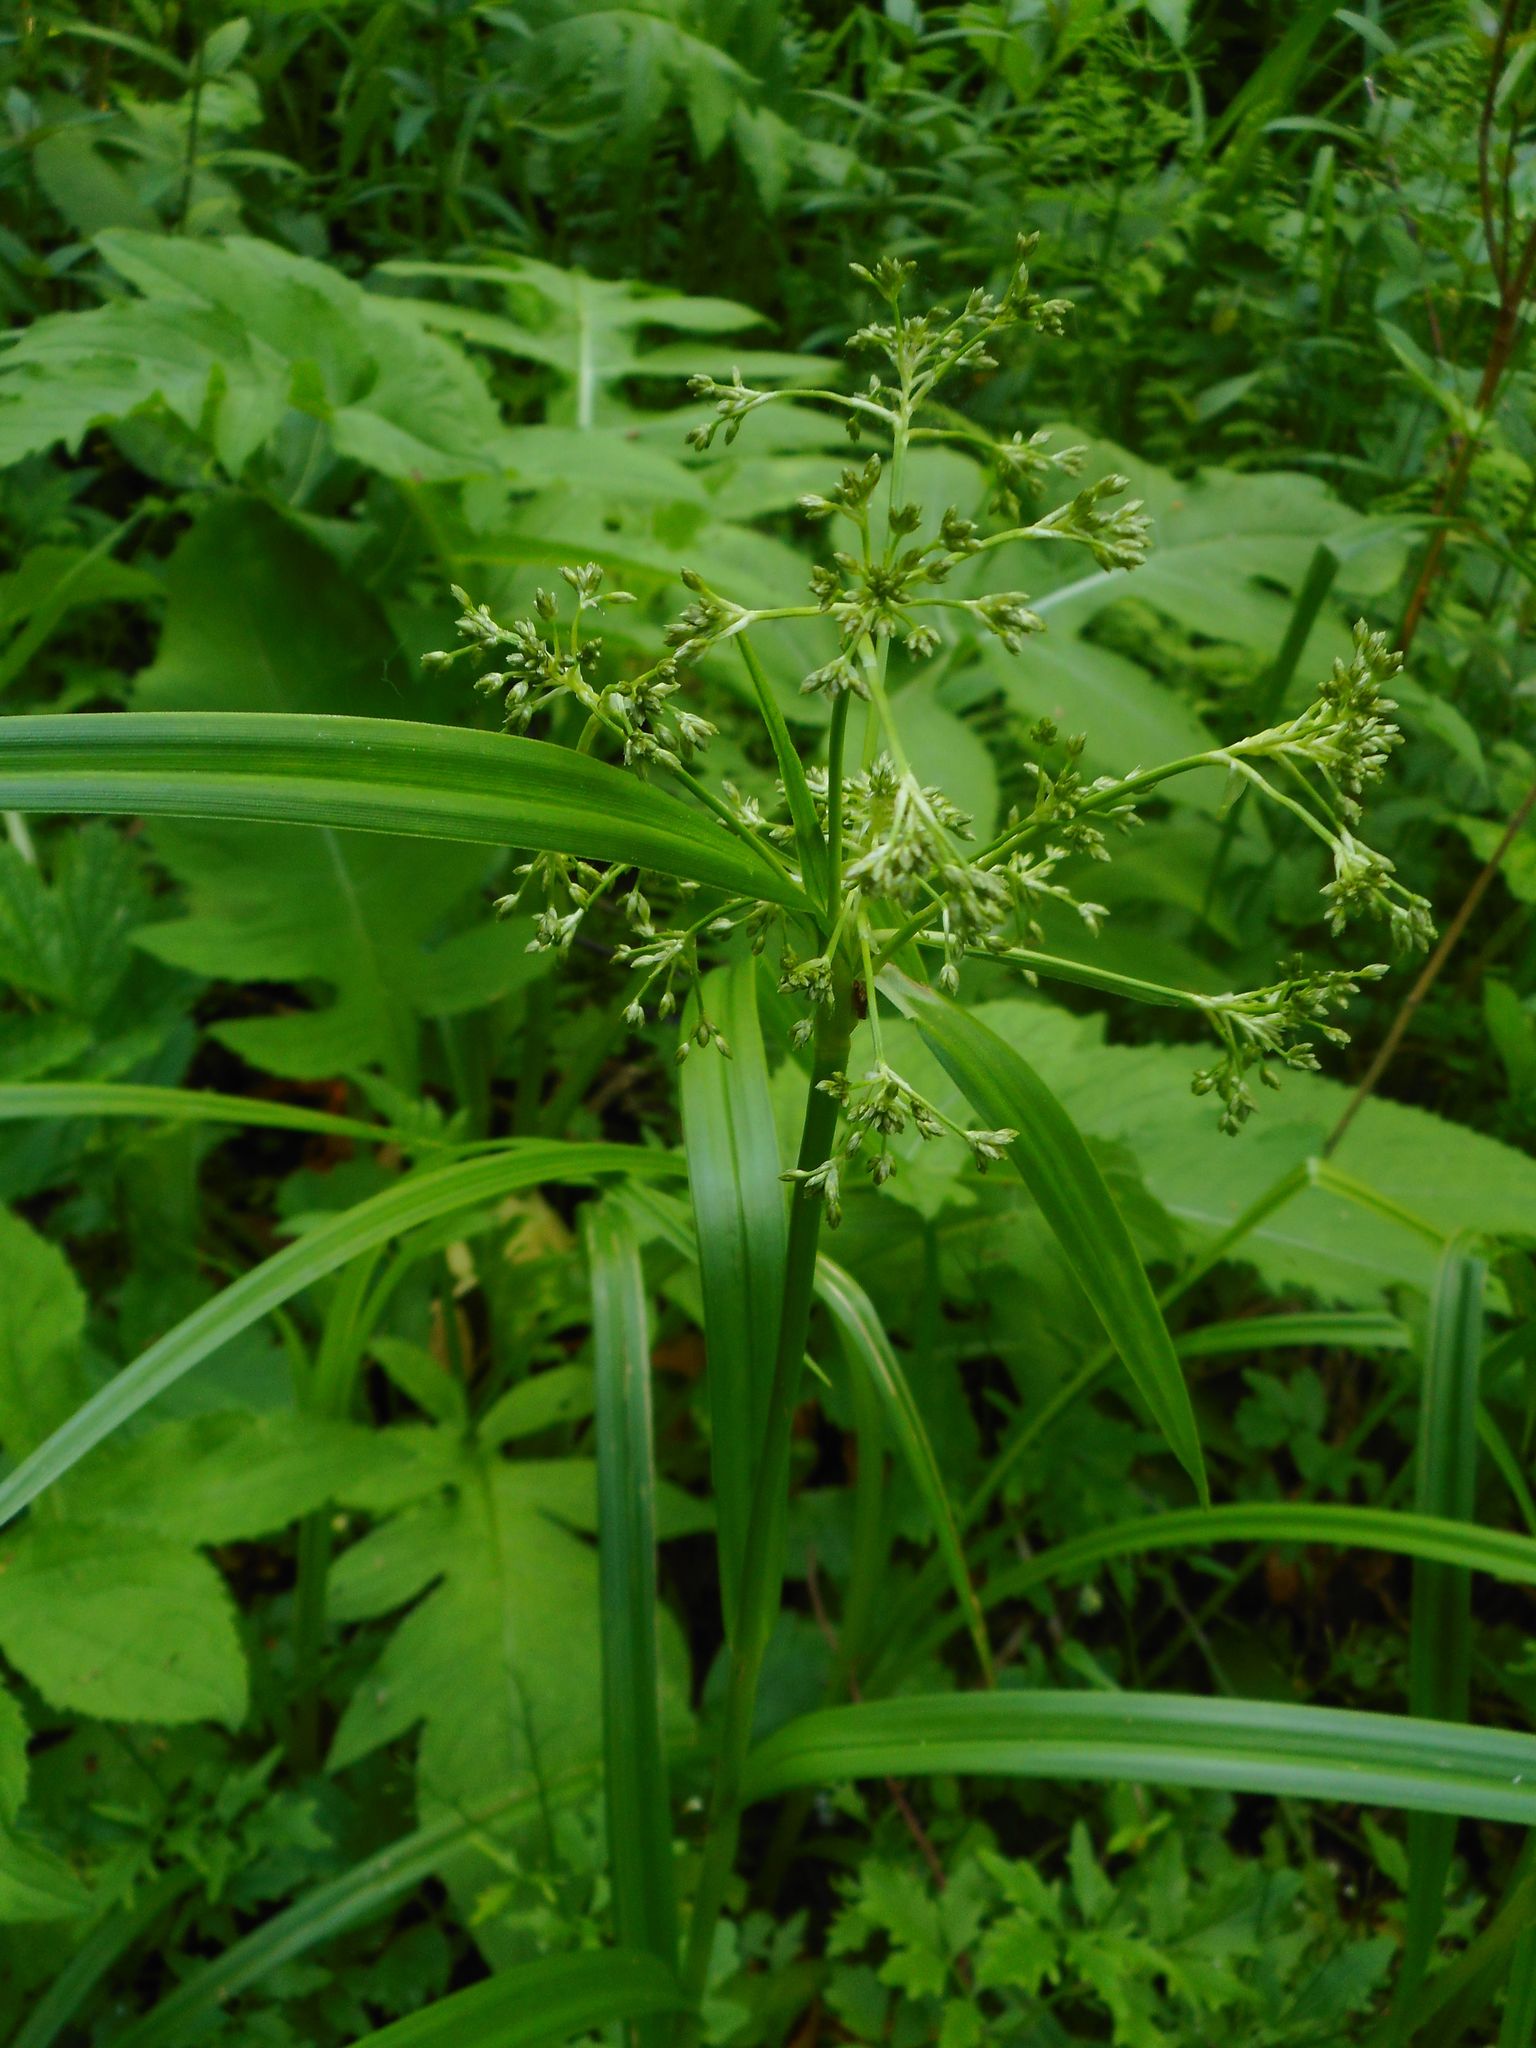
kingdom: Plantae
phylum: Tracheophyta
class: Liliopsida
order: Poales
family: Cyperaceae
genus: Scirpus
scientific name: Scirpus sylvaticus
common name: Wood club-rush
